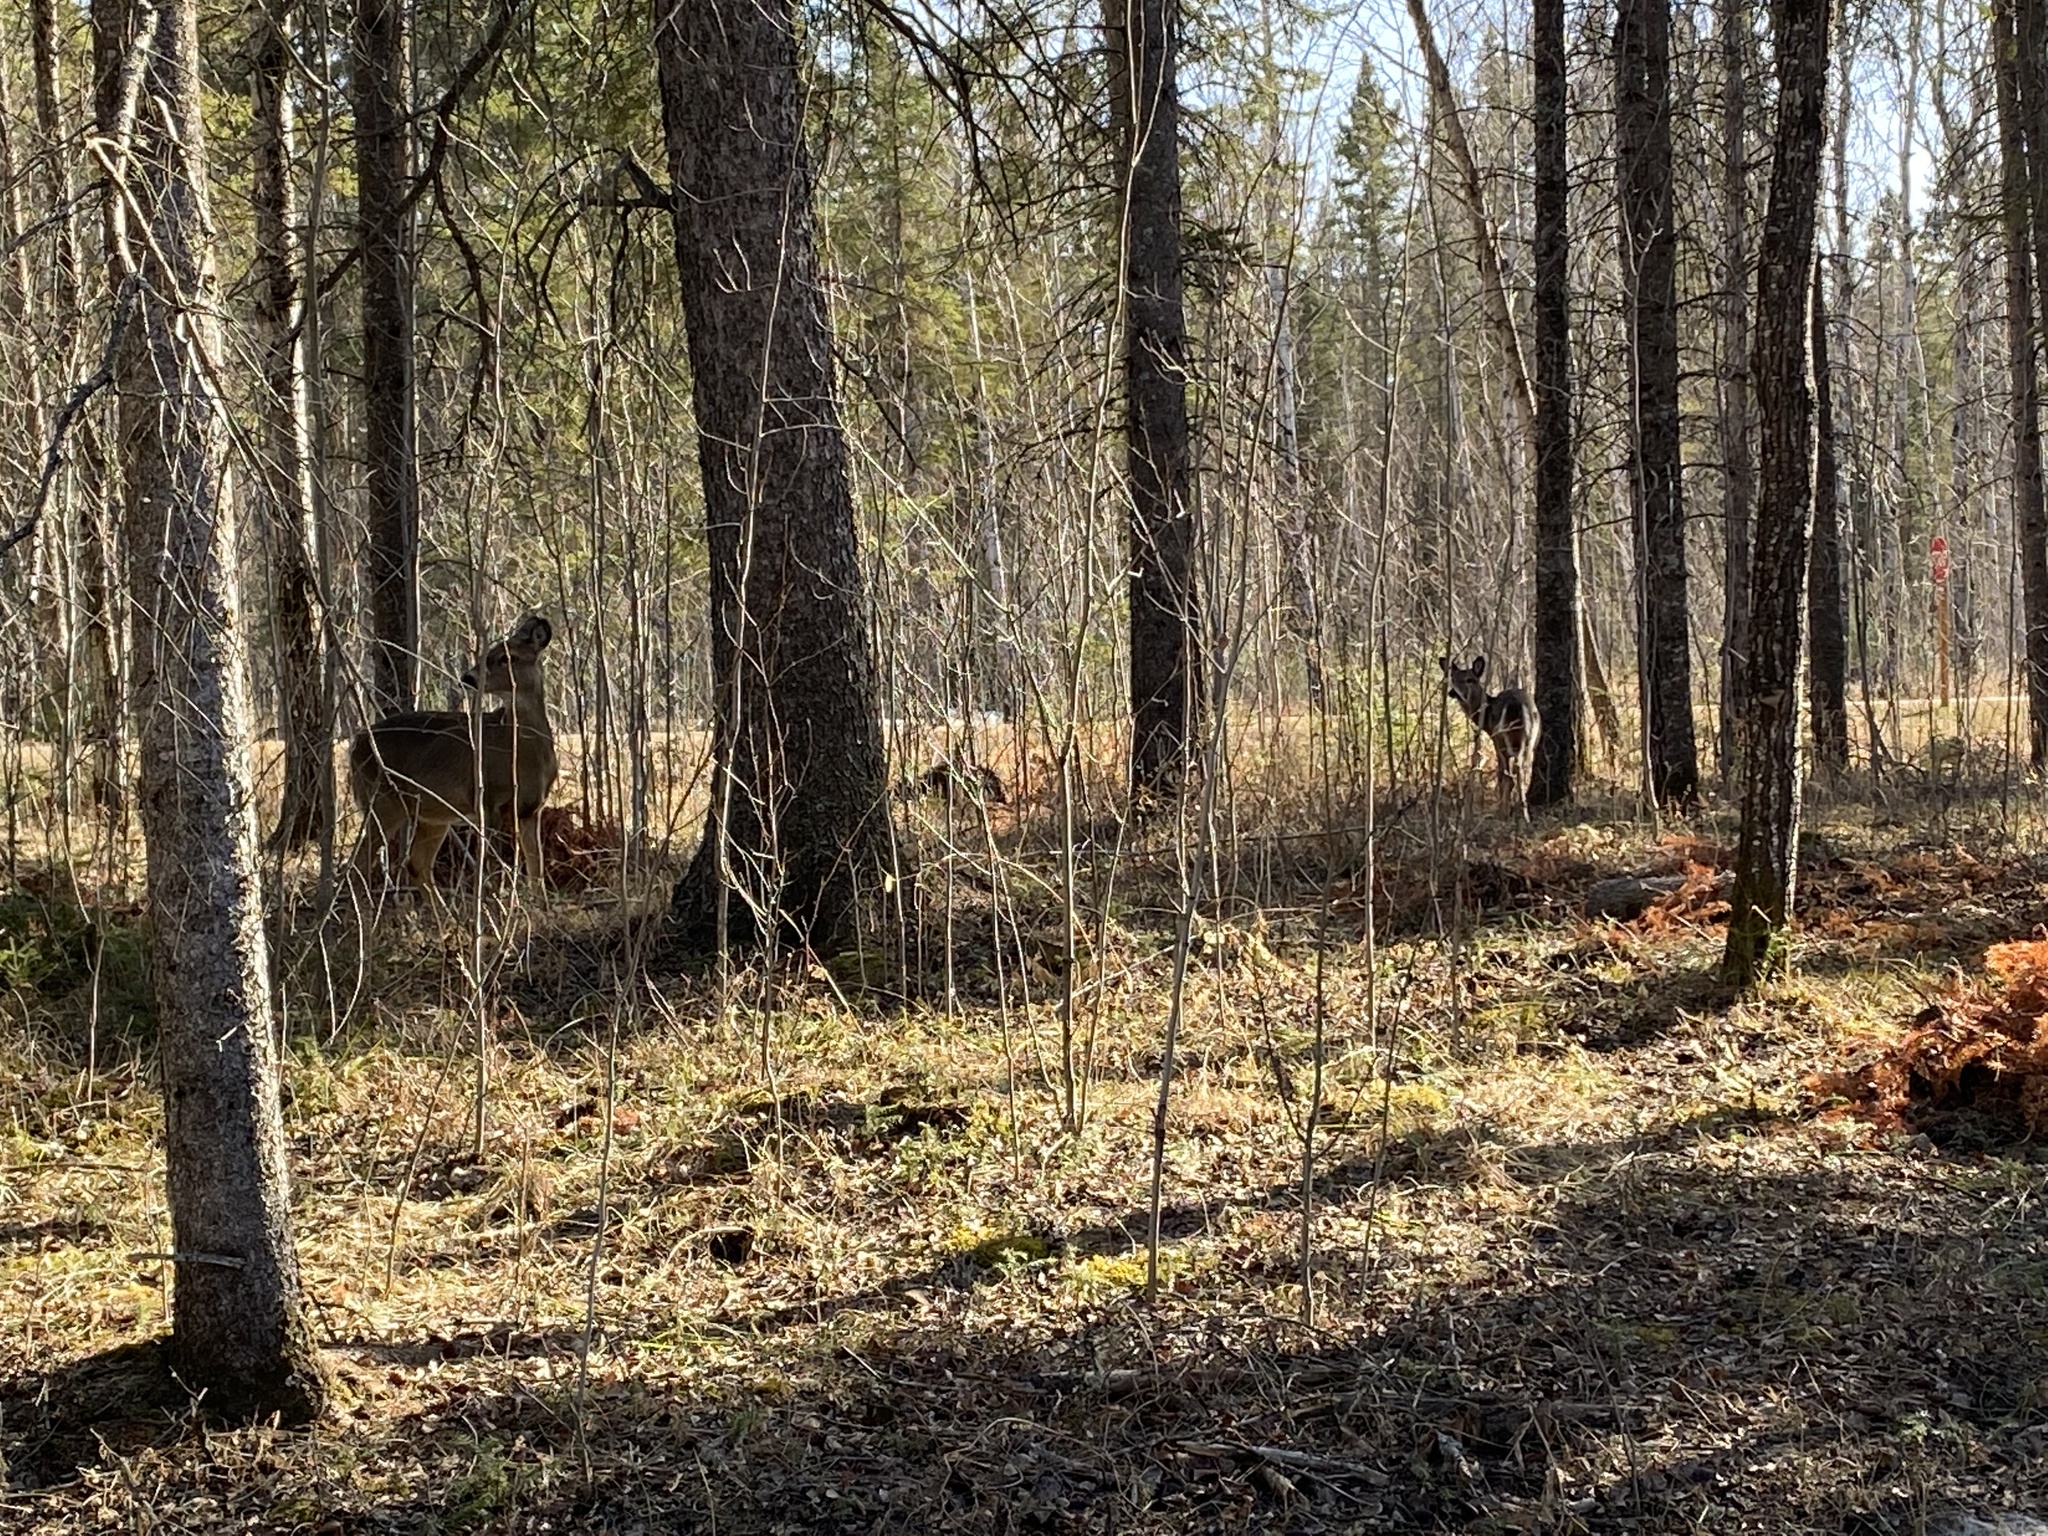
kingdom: Animalia
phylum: Chordata
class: Mammalia
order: Artiodactyla
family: Cervidae
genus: Odocoileus
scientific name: Odocoileus virginianus
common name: White-tailed deer
